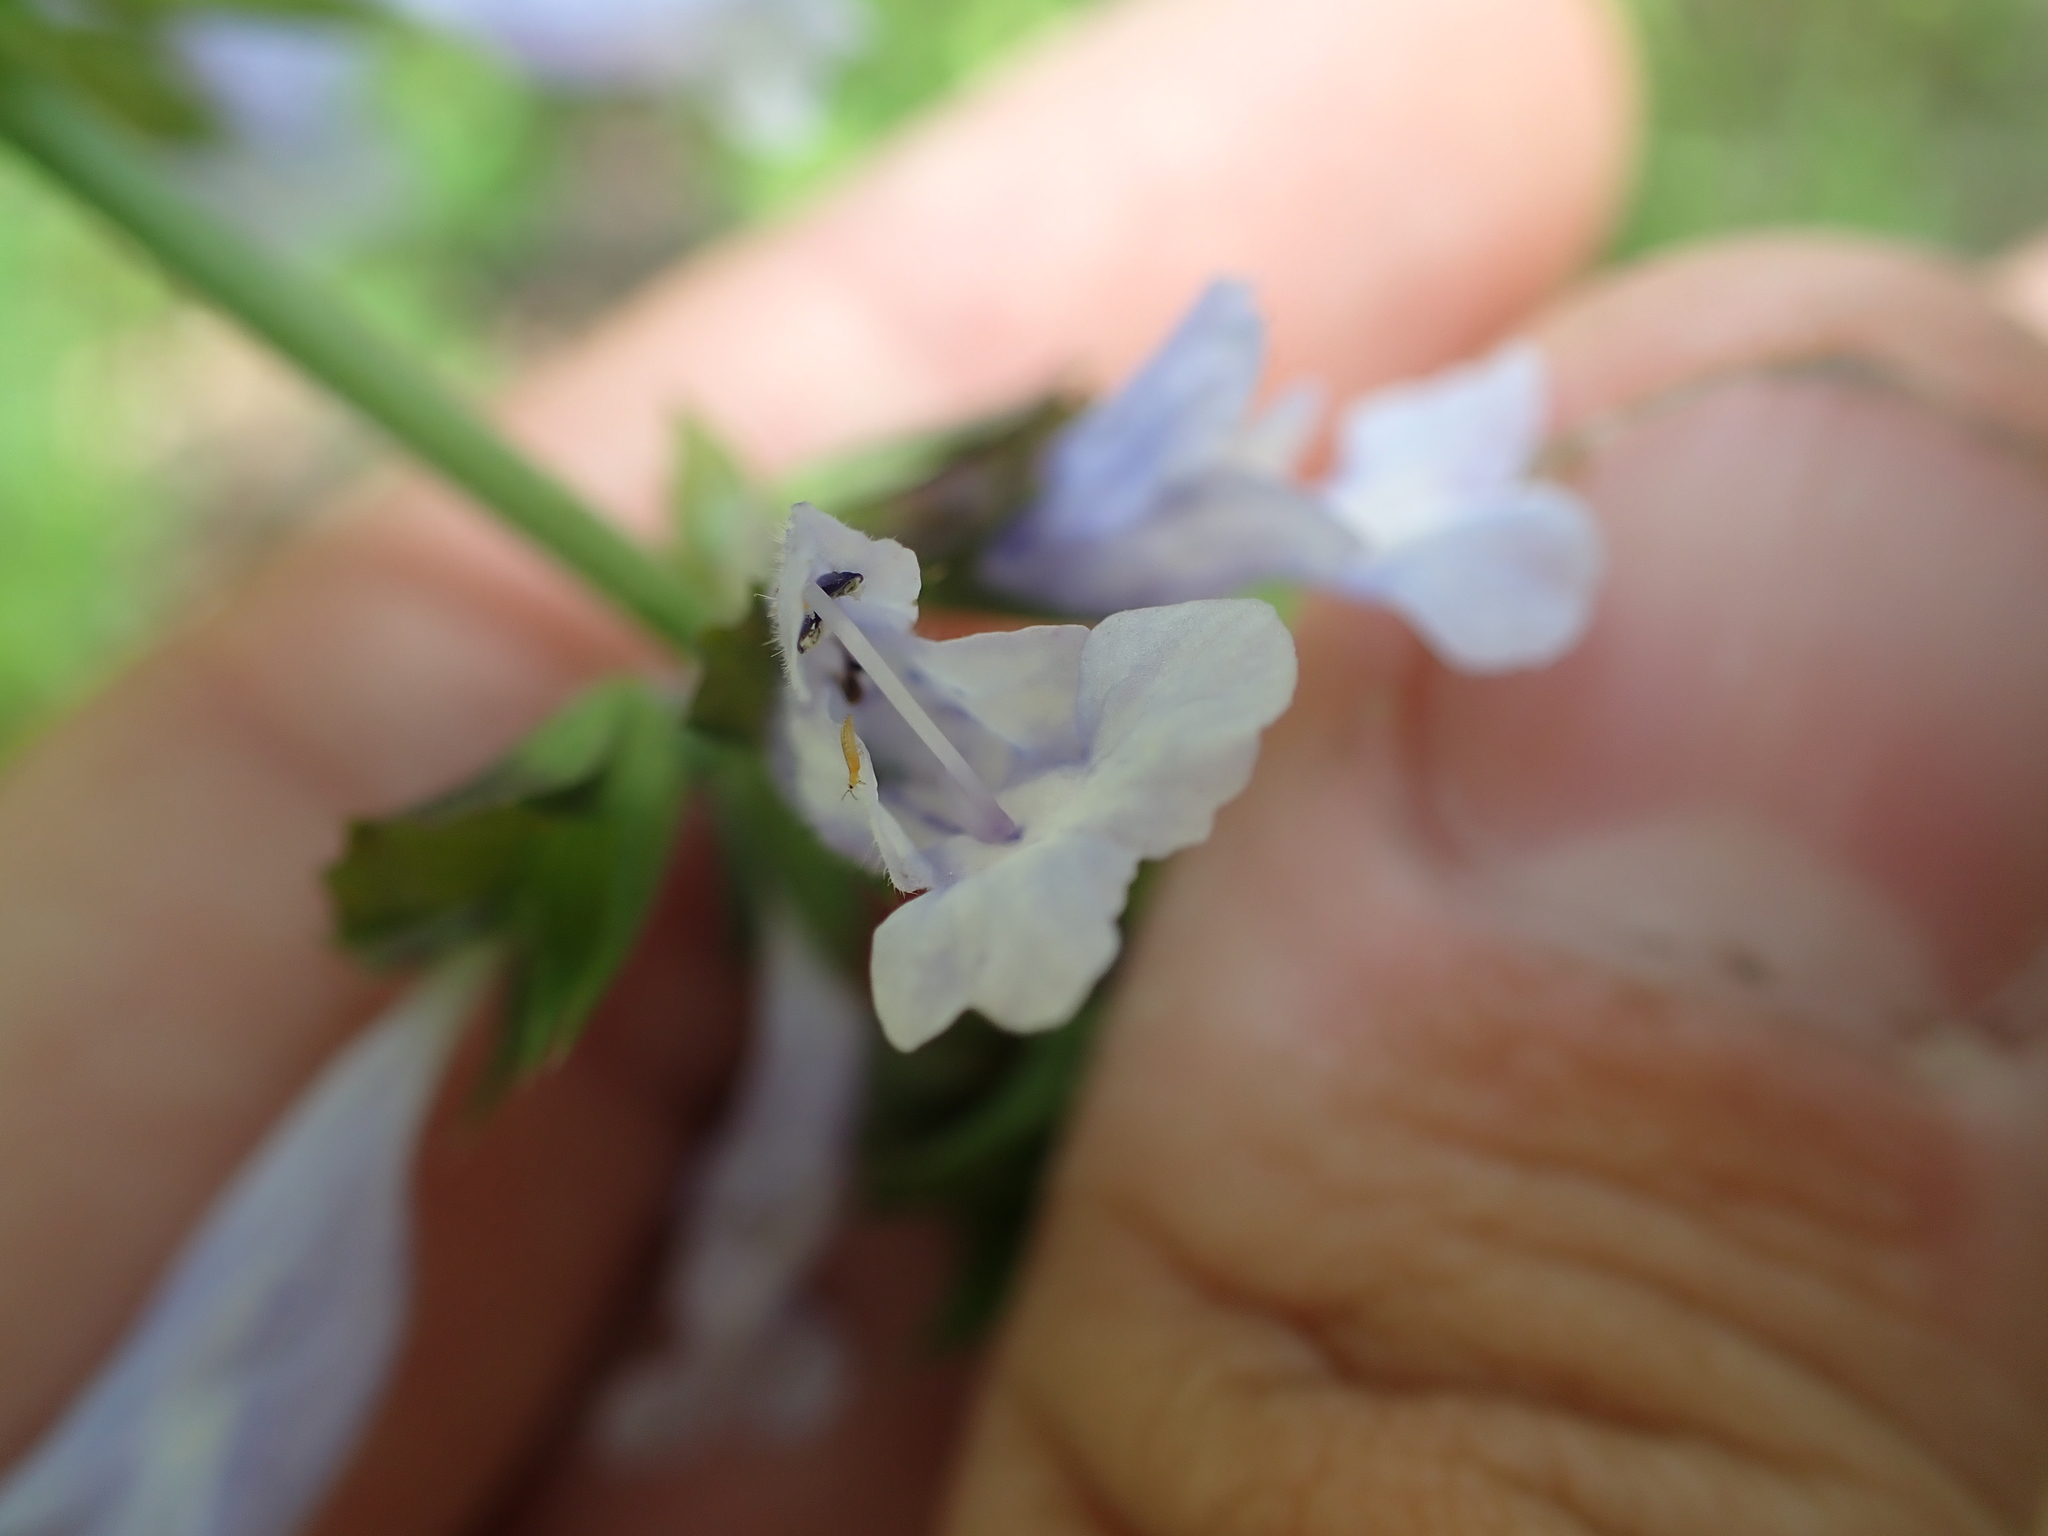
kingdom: Plantae
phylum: Tracheophyta
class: Magnoliopsida
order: Lamiales
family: Lamiaceae
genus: Salvia
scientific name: Salvia lyrata
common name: Cancerweed
